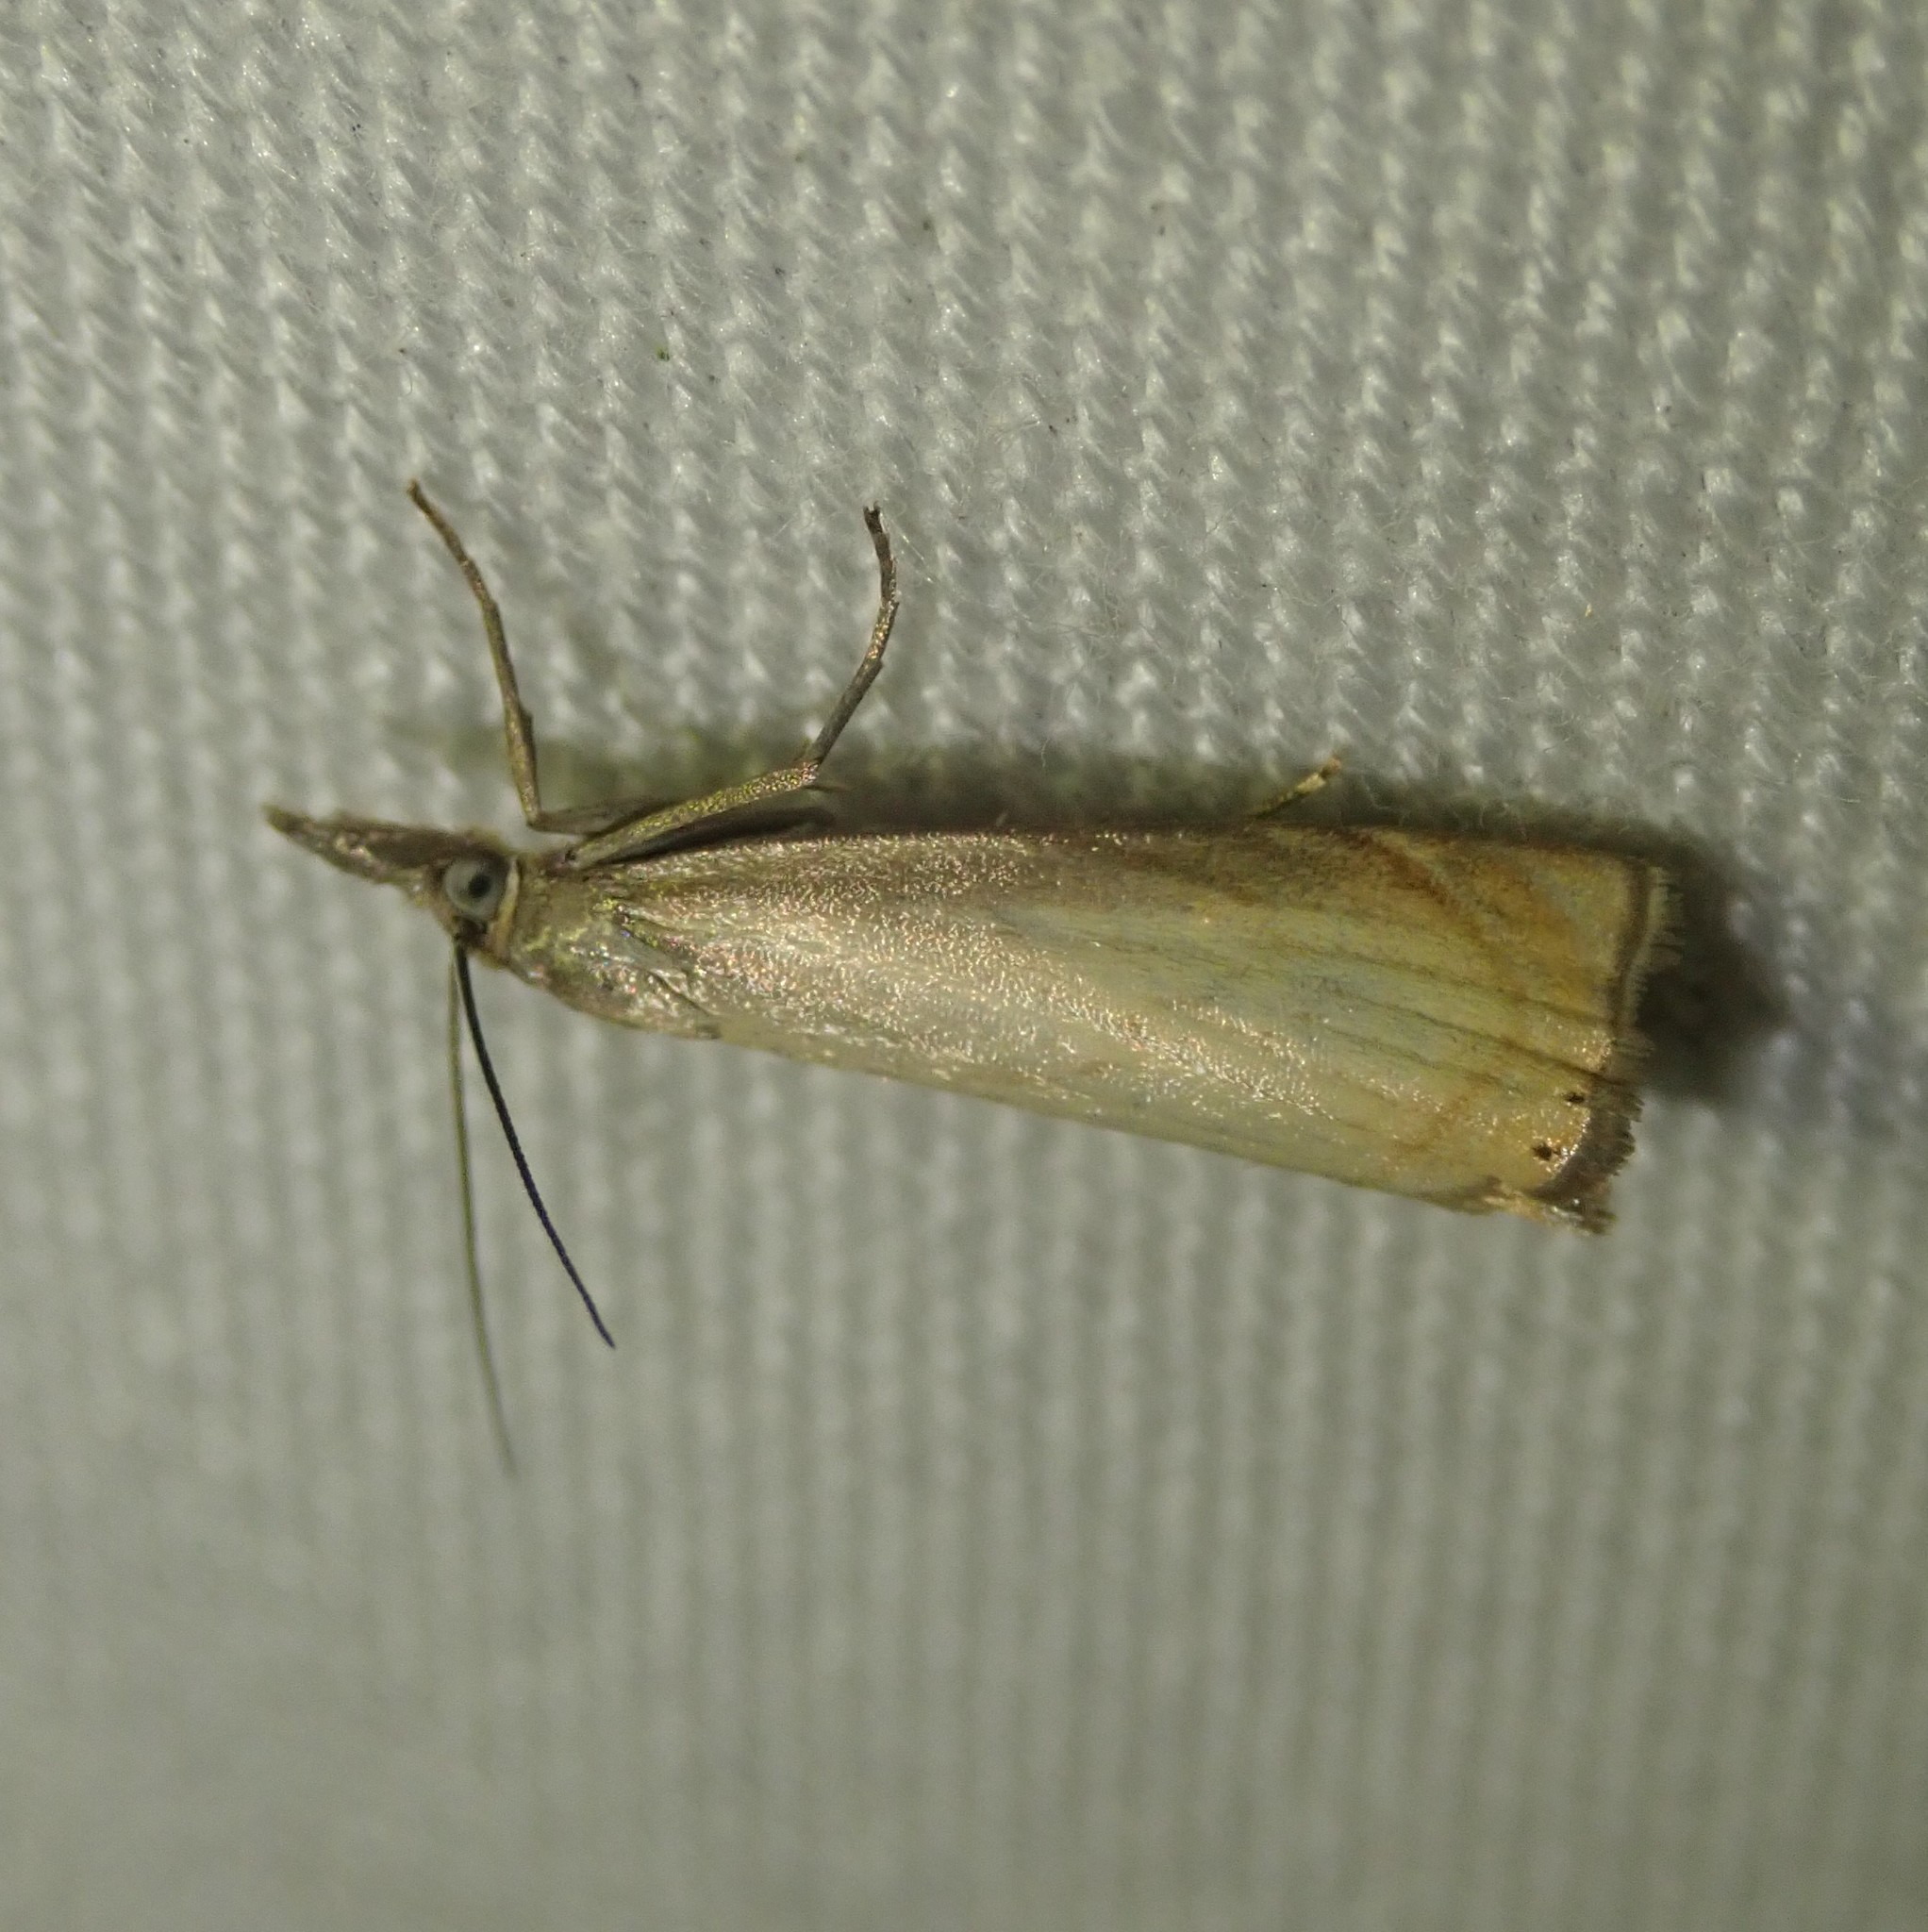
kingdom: Animalia
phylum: Arthropoda
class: Insecta
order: Lepidoptera
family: Crambidae
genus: Chrysoteuchia
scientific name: Chrysoteuchia culmella
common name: Garden grass-veneer
